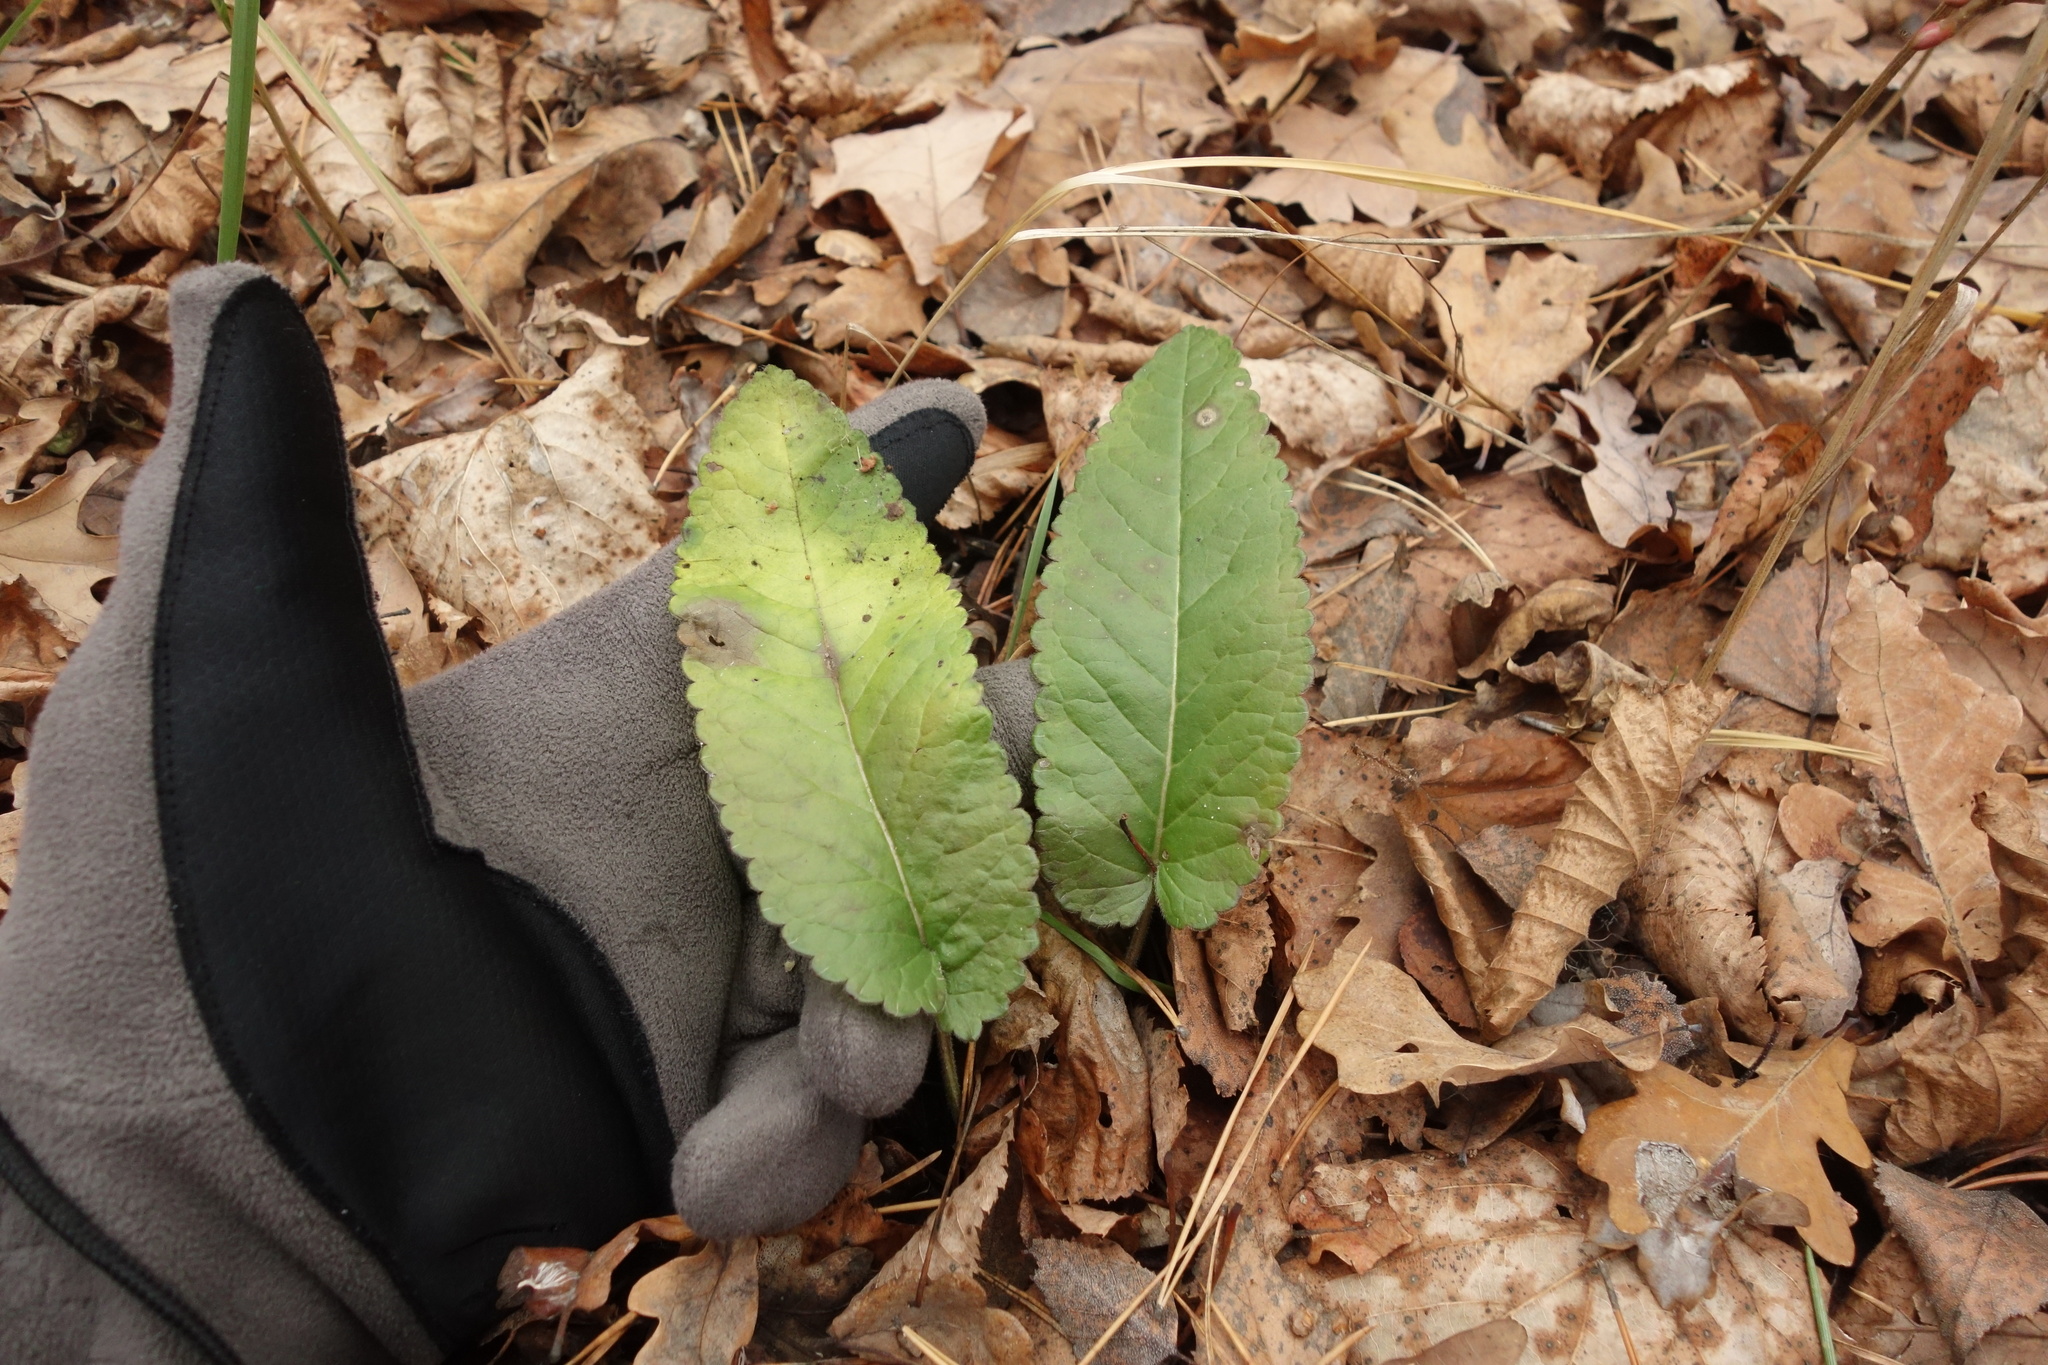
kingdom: Plantae
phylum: Tracheophyta
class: Magnoliopsida
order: Lamiales
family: Lamiaceae
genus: Betonica
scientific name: Betonica officinalis
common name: Bishop's-wort
